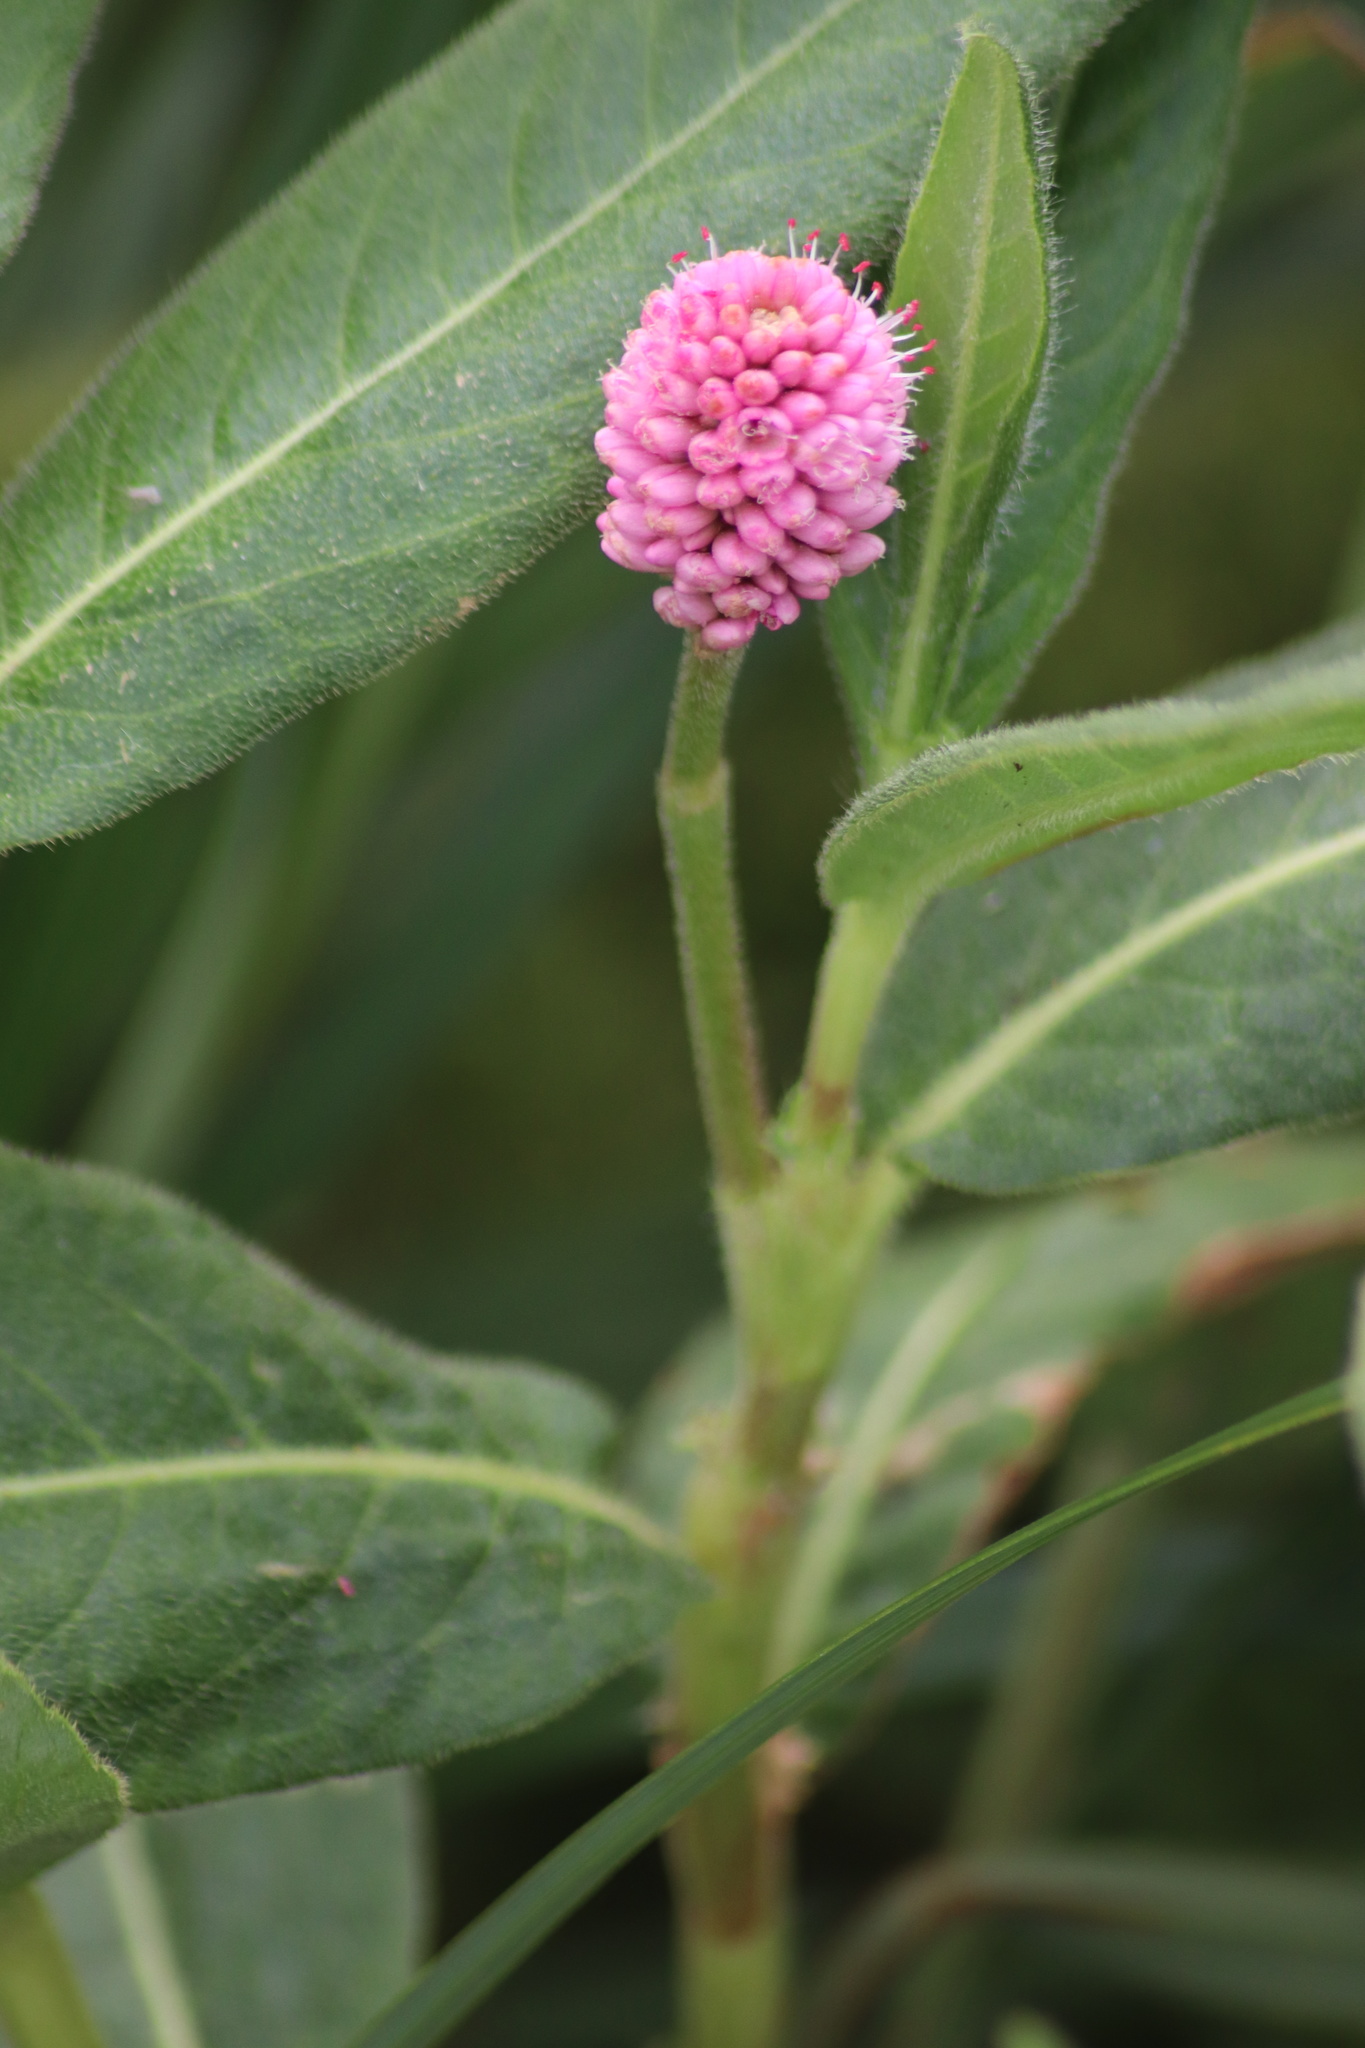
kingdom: Plantae
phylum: Tracheophyta
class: Magnoliopsida
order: Caryophyllales
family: Polygonaceae
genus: Persicaria
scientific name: Persicaria amphibia
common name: Amphibious bistort
